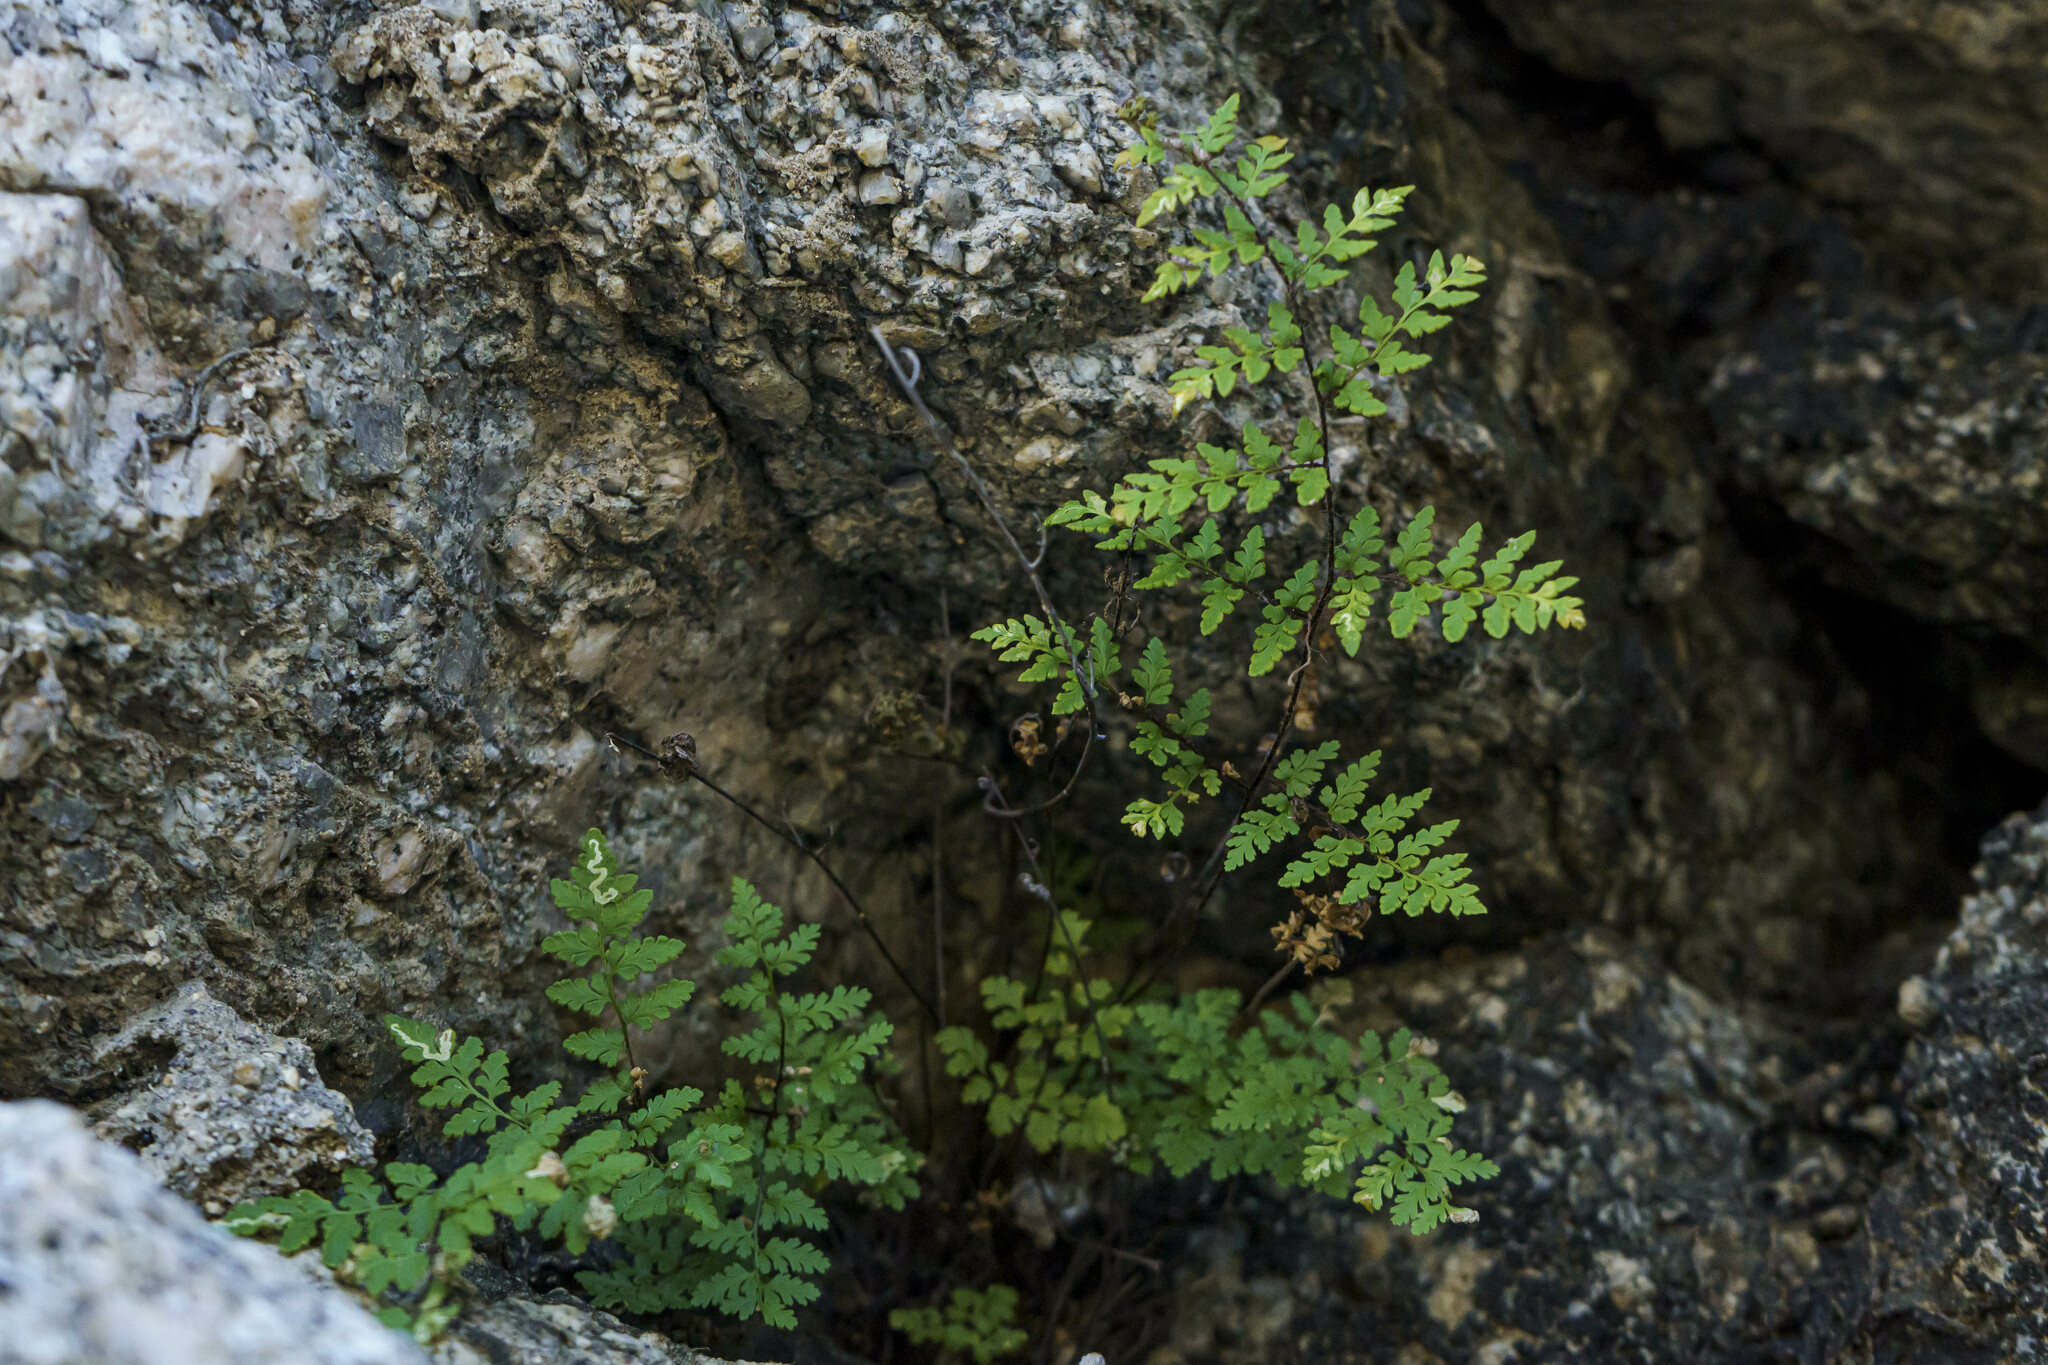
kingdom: Plantae
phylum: Tracheophyta
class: Polypodiopsida
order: Polypodiales
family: Pteridaceae
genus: Myriopteris
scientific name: Myriopteris peninsularis
